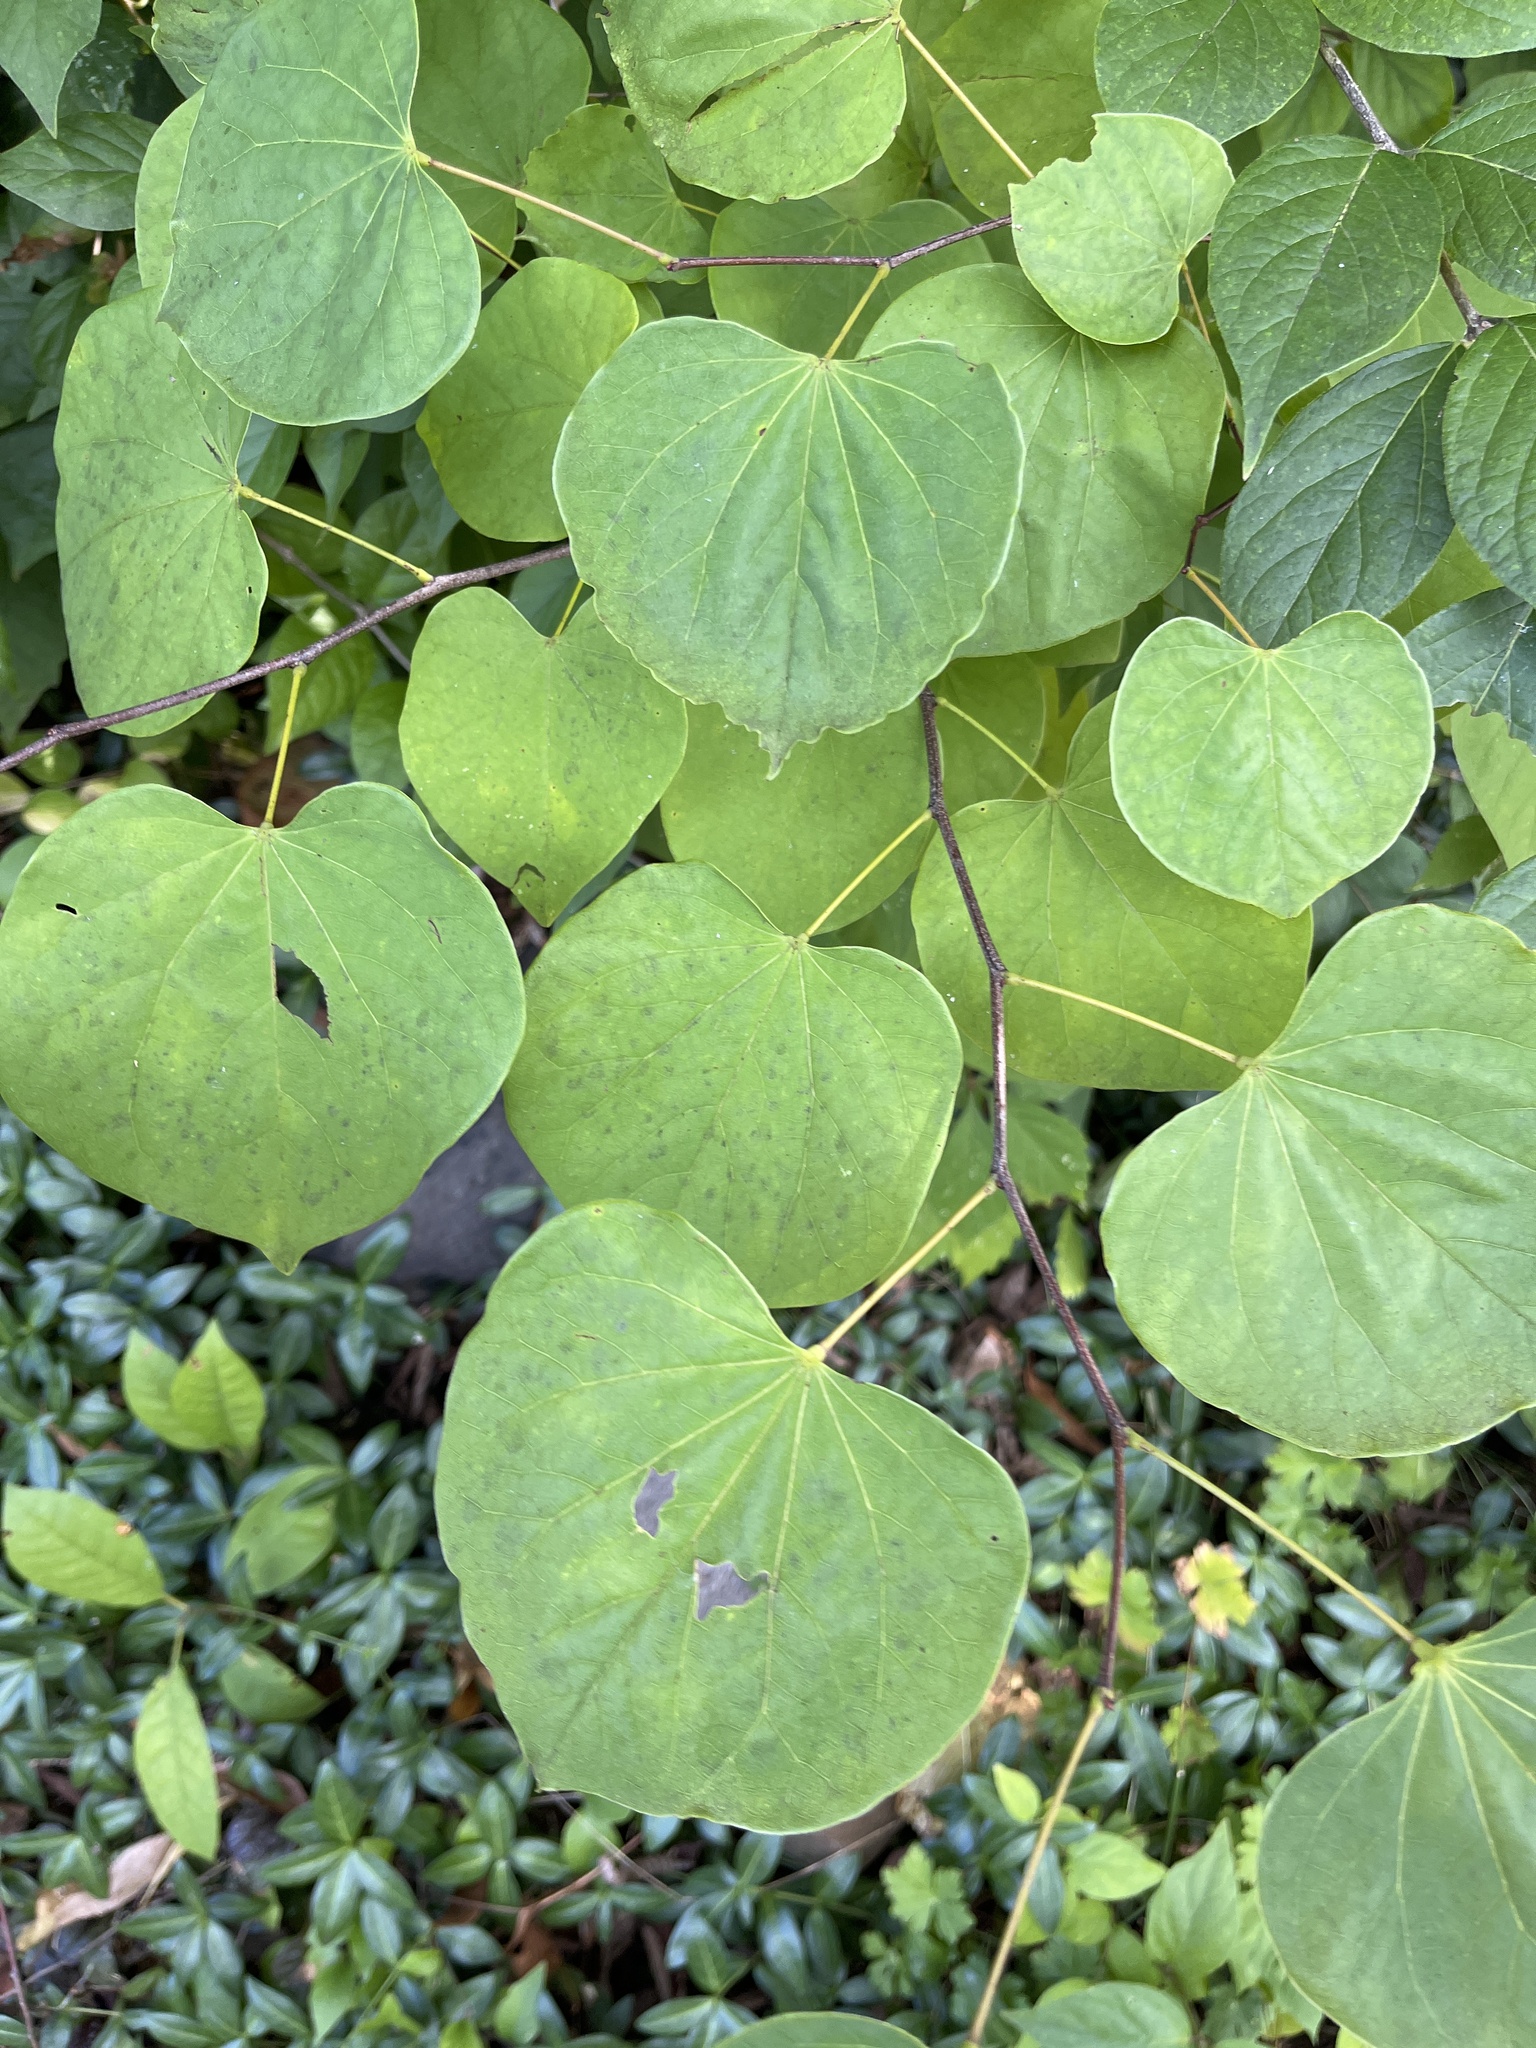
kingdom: Plantae
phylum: Tracheophyta
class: Magnoliopsida
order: Fabales
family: Fabaceae
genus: Cercis
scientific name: Cercis canadensis
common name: Eastern redbud
